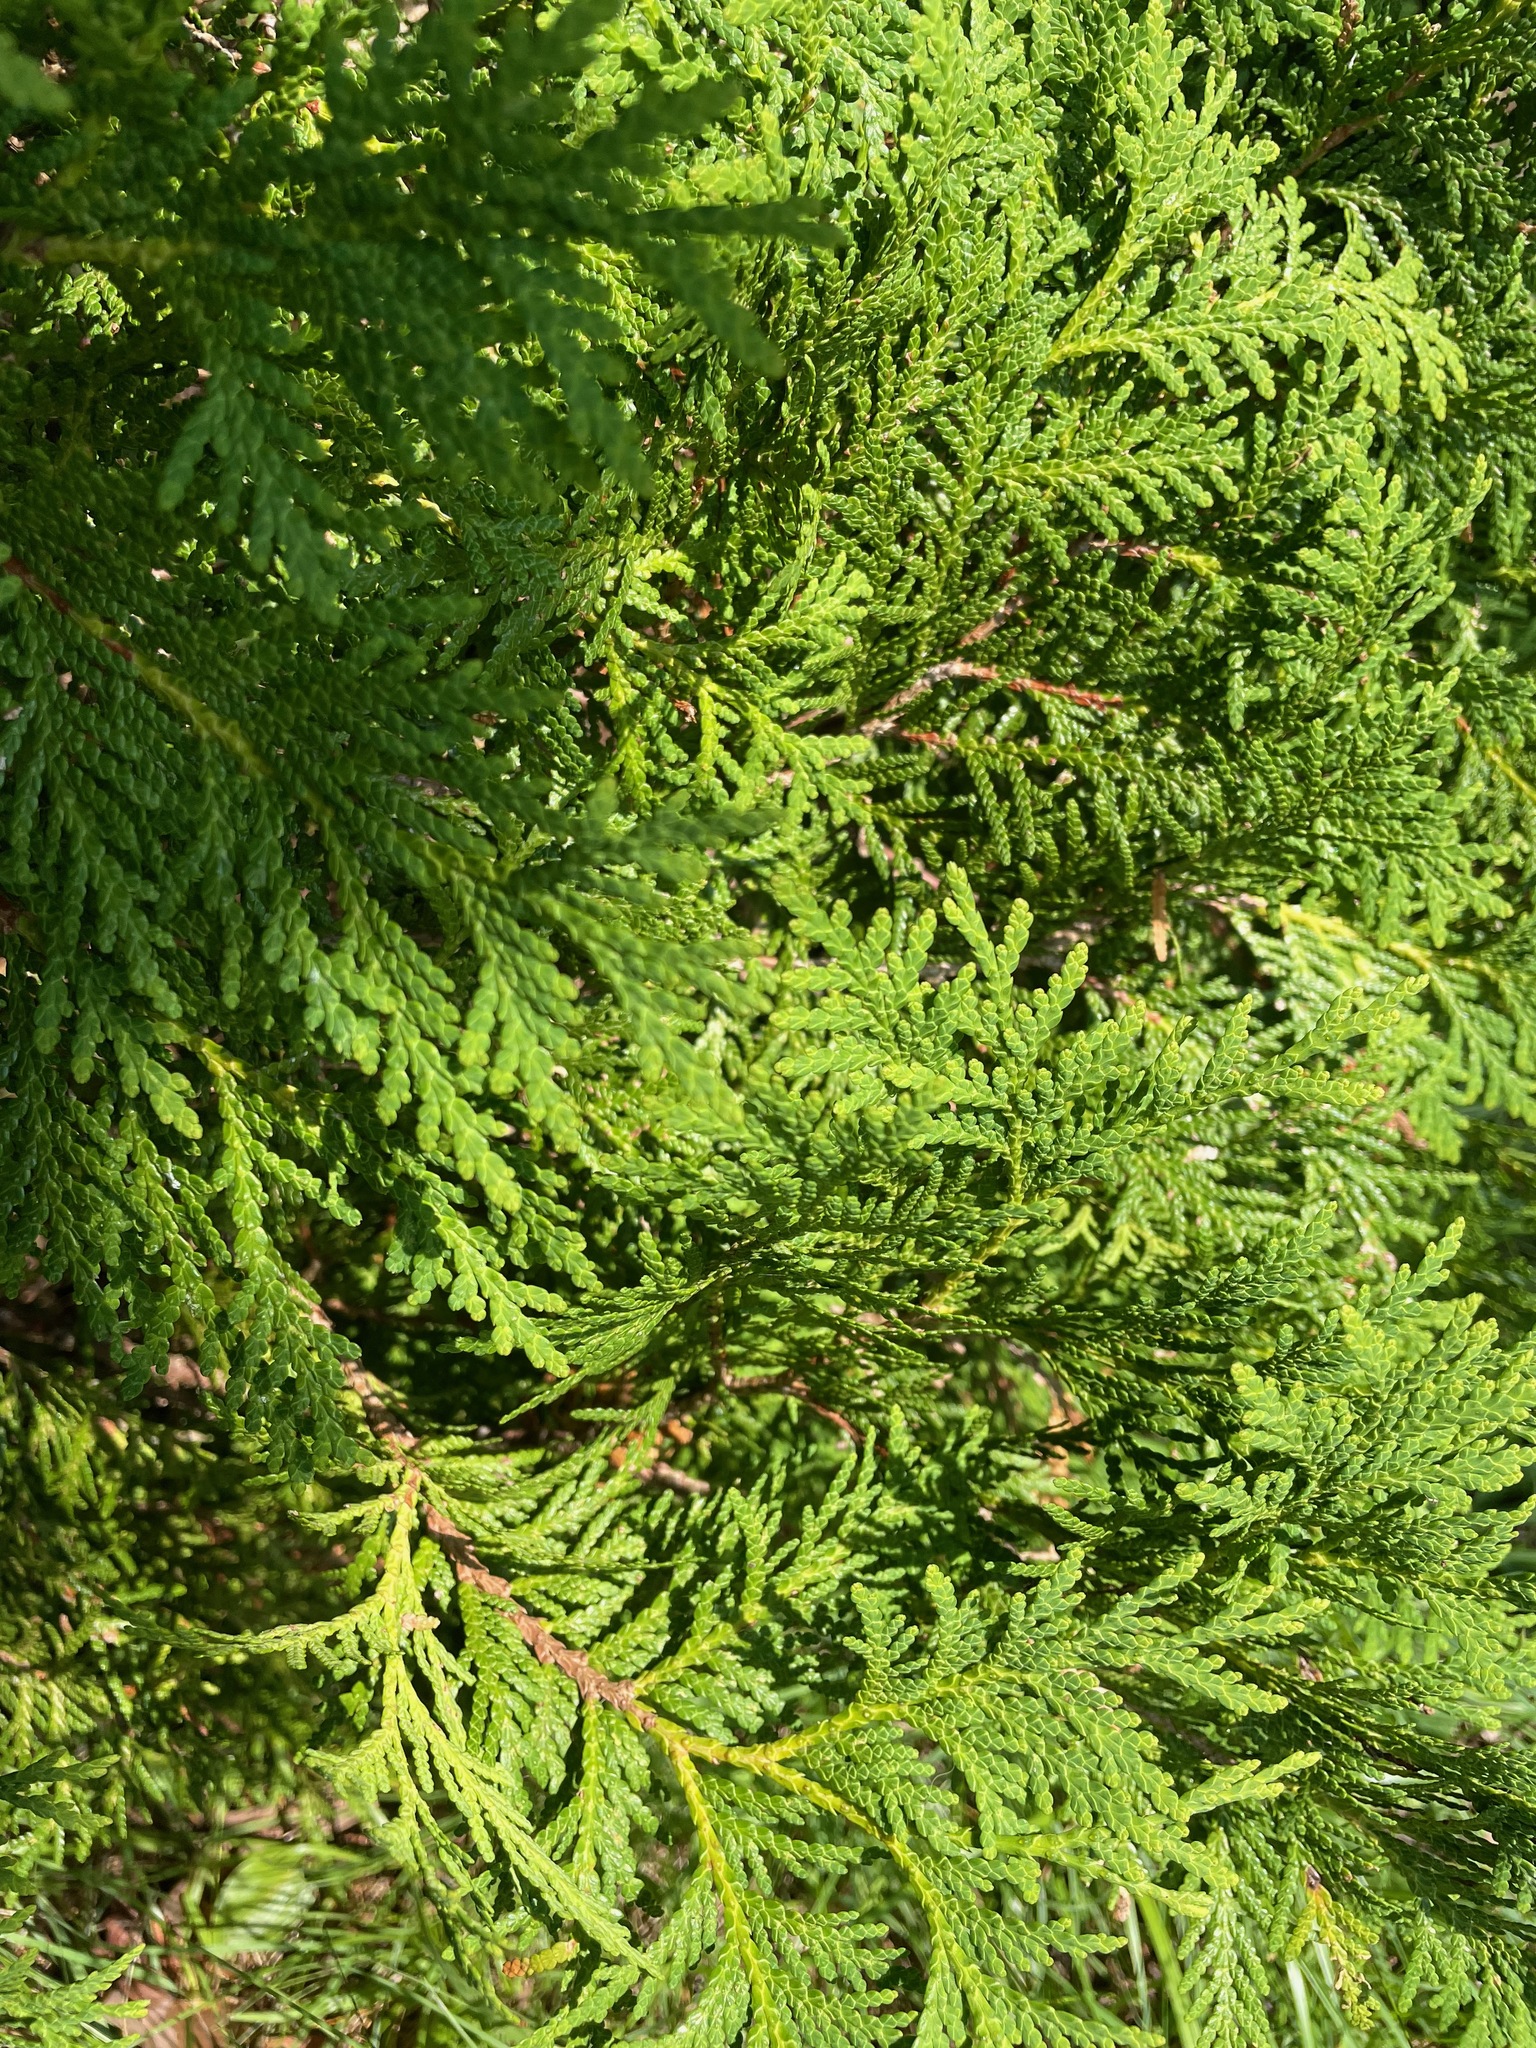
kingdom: Plantae
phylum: Tracheophyta
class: Pinopsida
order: Pinales
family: Cupressaceae
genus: Thuja
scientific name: Thuja occidentalis
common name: Northern white-cedar
